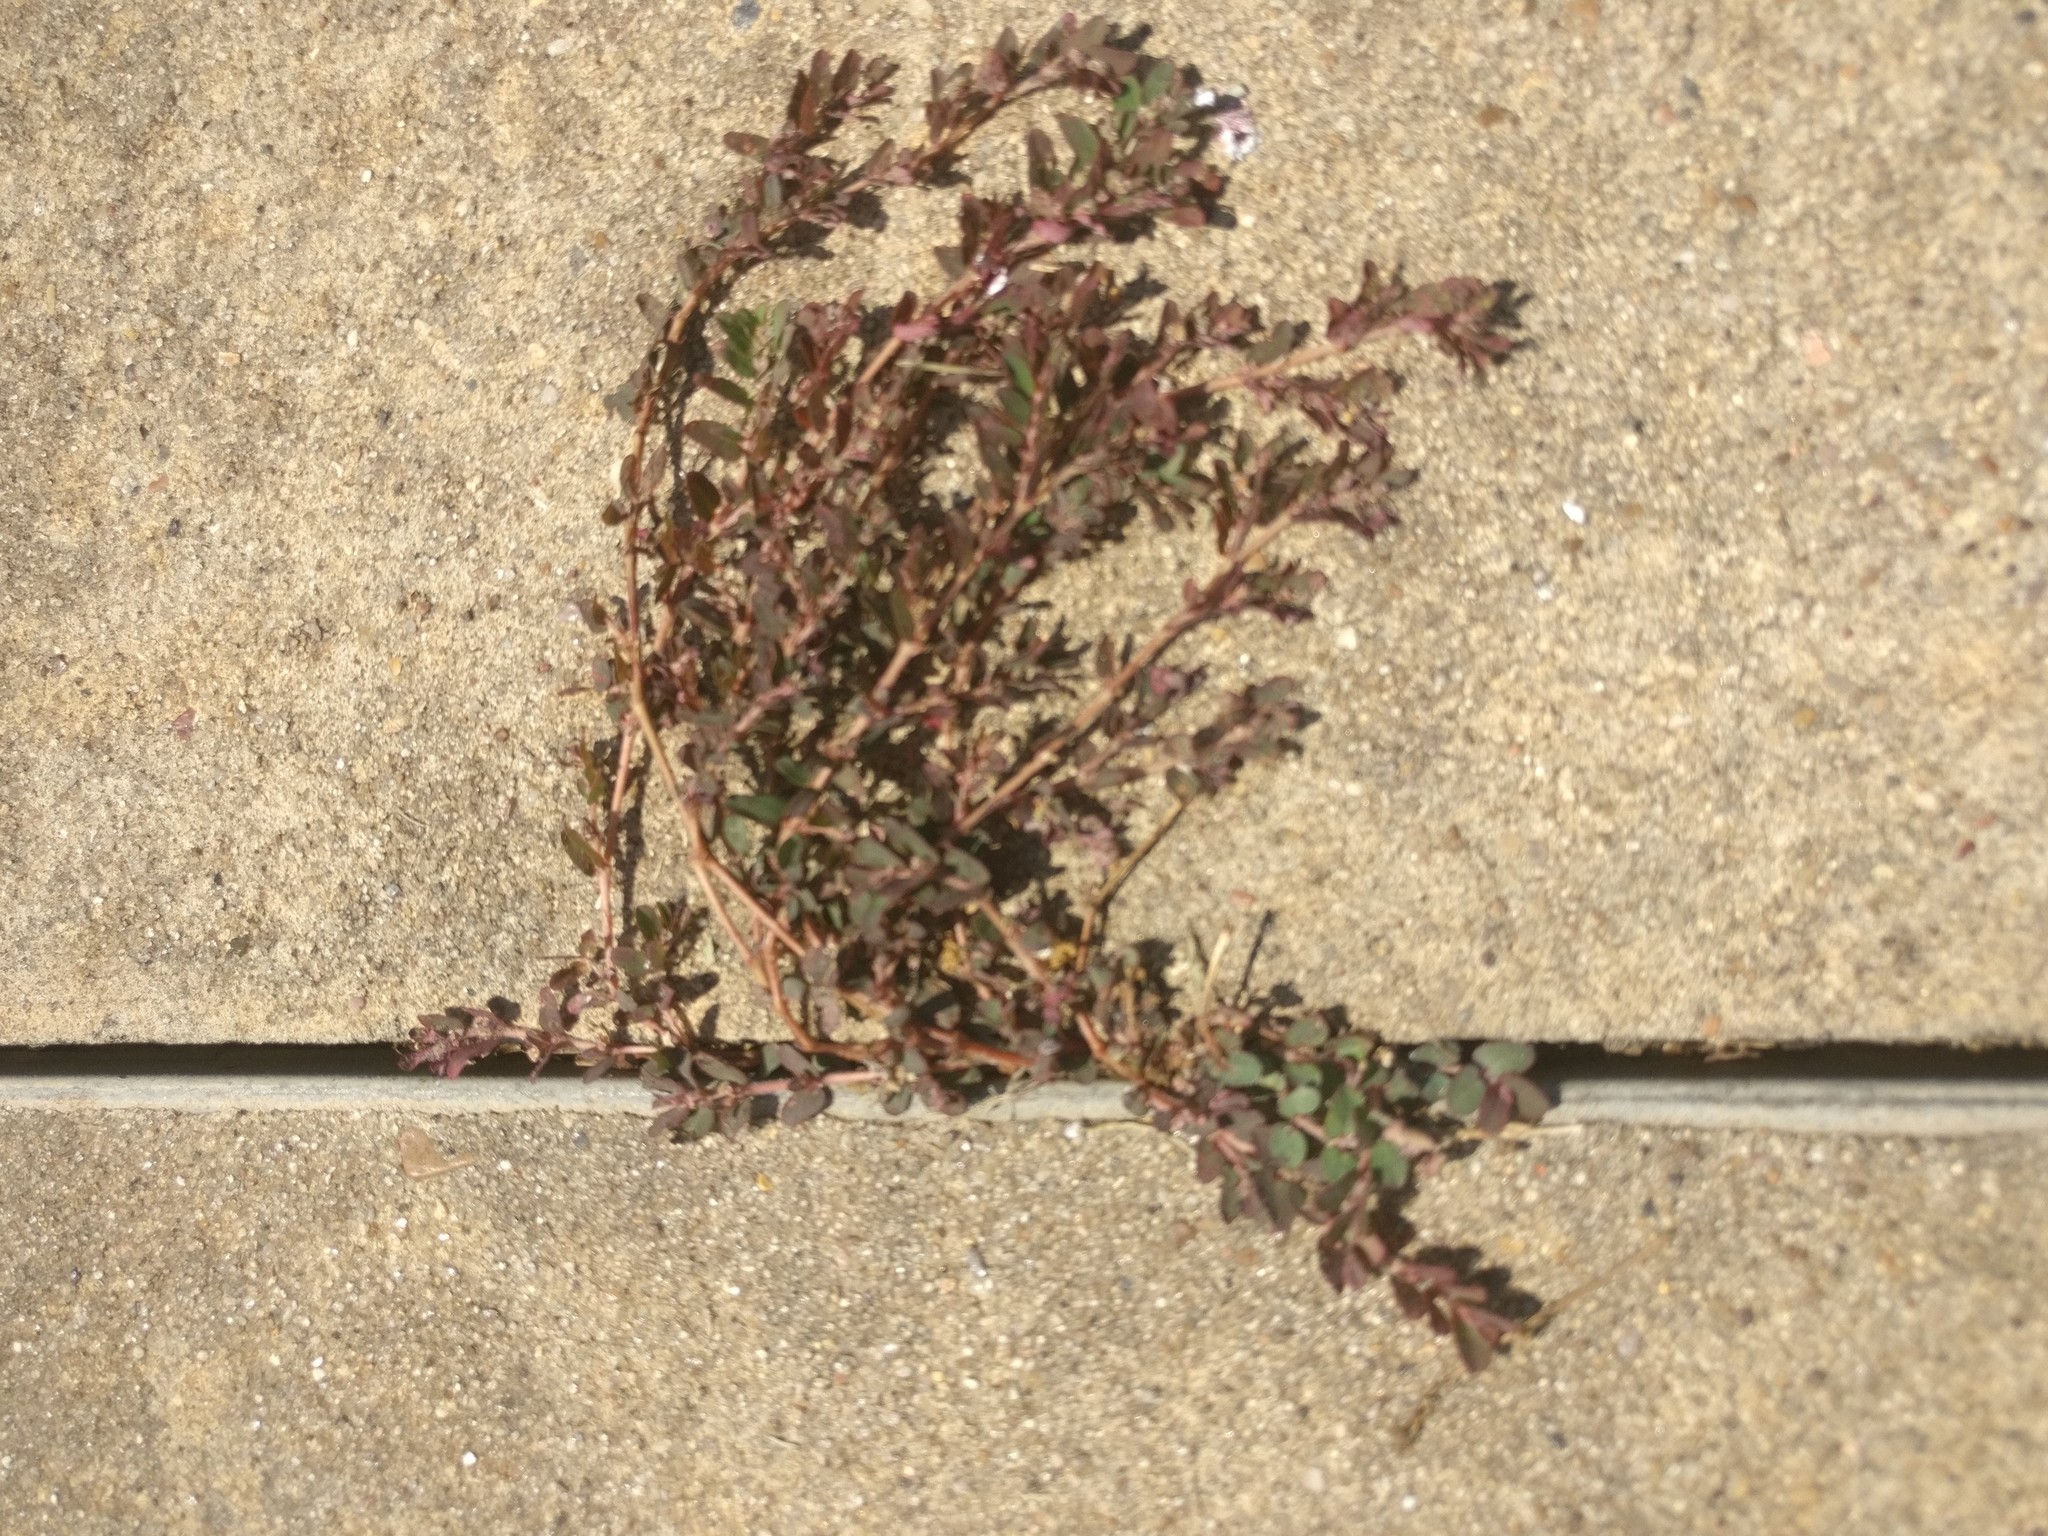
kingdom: Plantae
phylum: Tracheophyta
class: Magnoliopsida
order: Malpighiales
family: Euphorbiaceae
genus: Euphorbia
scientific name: Euphorbia maculata
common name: Spotted spurge
